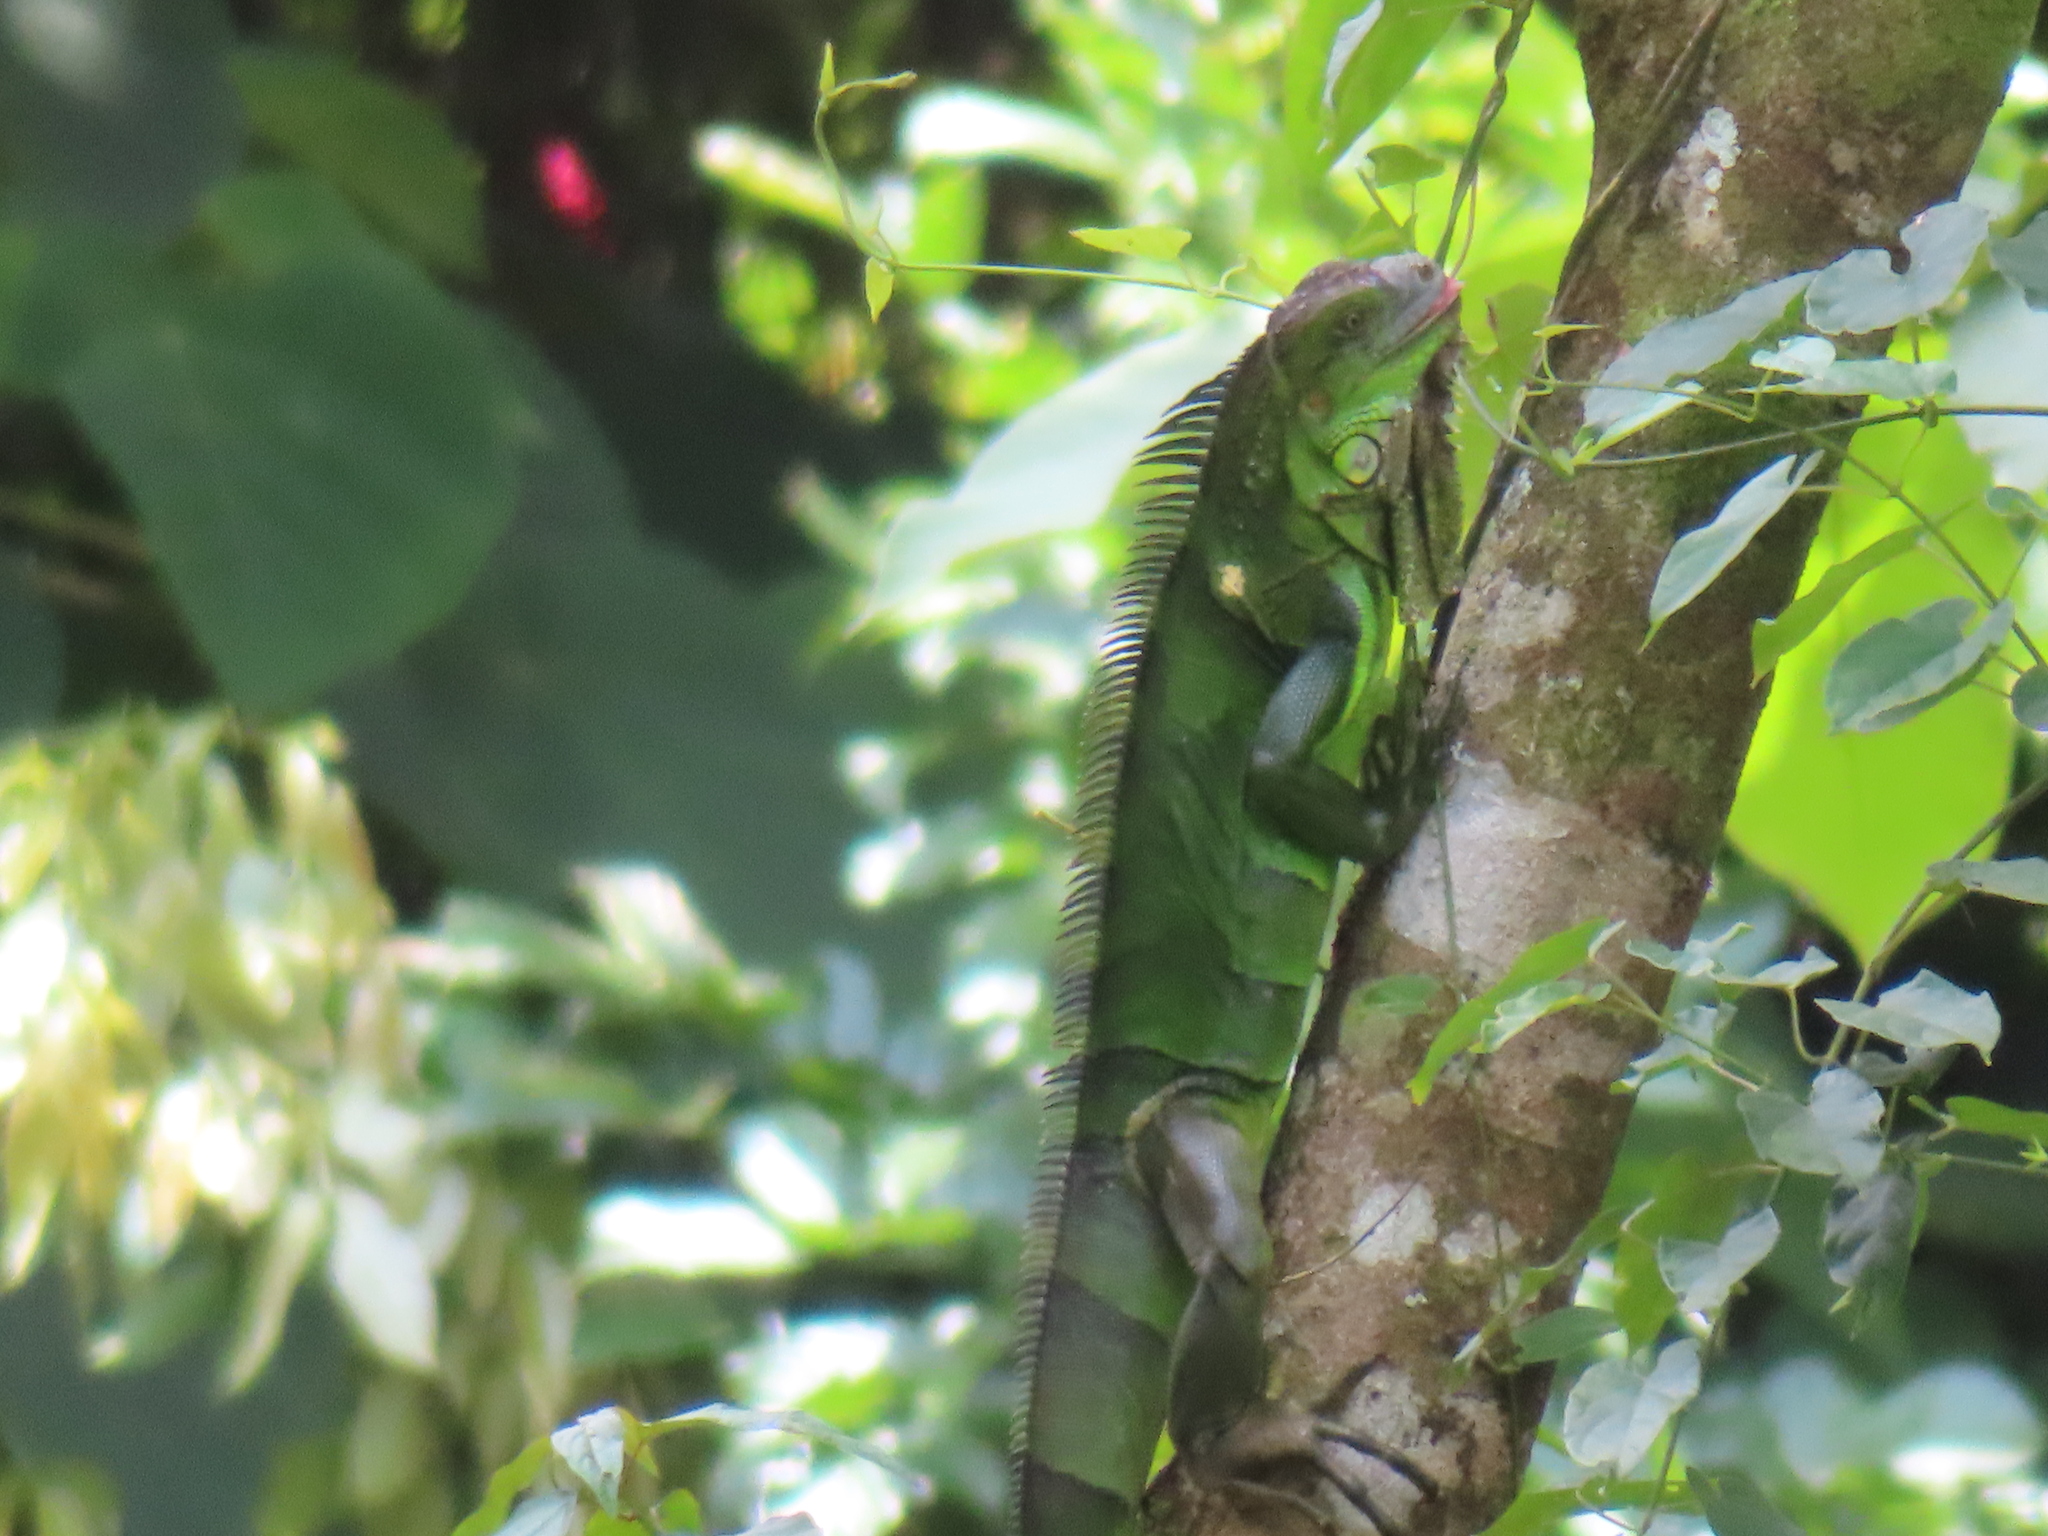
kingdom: Animalia
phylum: Chordata
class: Squamata
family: Iguanidae
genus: Iguana
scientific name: Iguana iguana
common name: Green iguana
